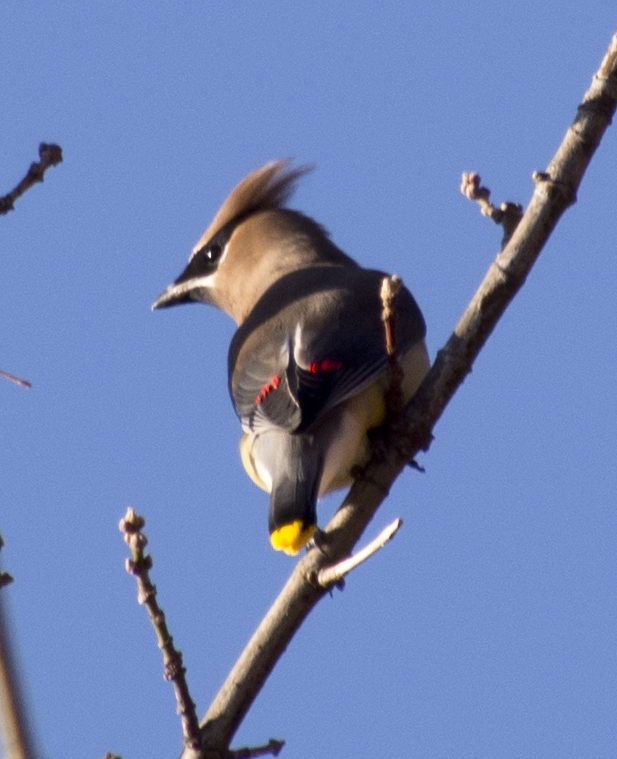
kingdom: Animalia
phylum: Chordata
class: Aves
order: Passeriformes
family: Bombycillidae
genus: Bombycilla
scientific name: Bombycilla cedrorum
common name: Cedar waxwing
